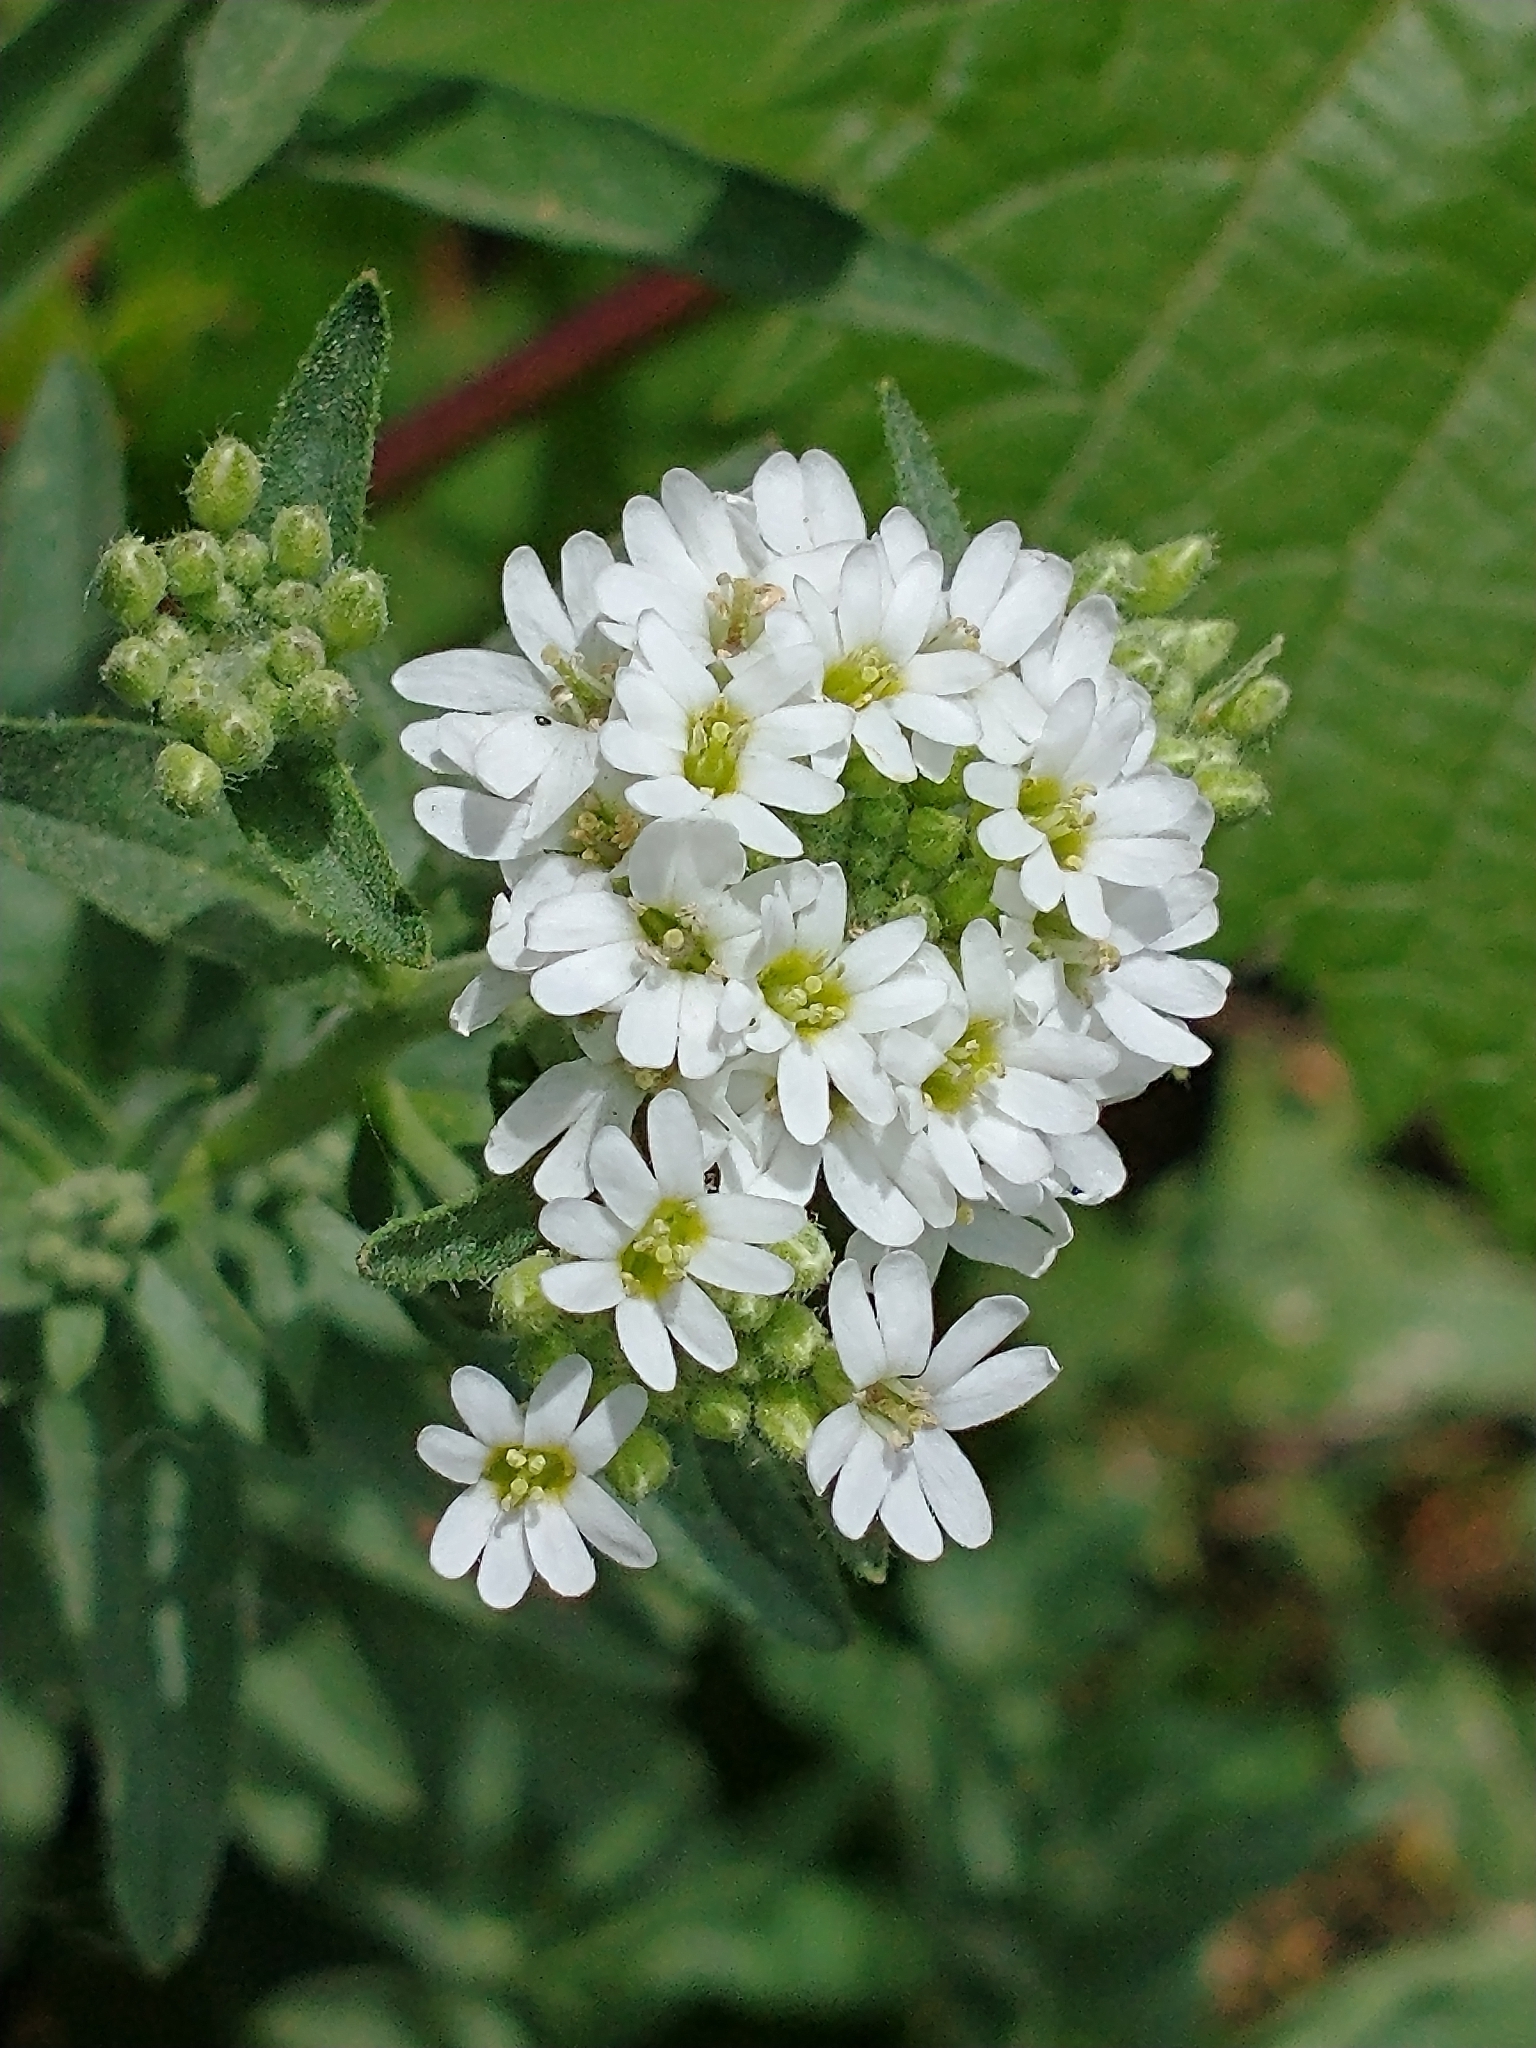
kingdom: Plantae
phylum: Tracheophyta
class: Magnoliopsida
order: Brassicales
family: Brassicaceae
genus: Berteroa
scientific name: Berteroa incana
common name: Hoary alison
